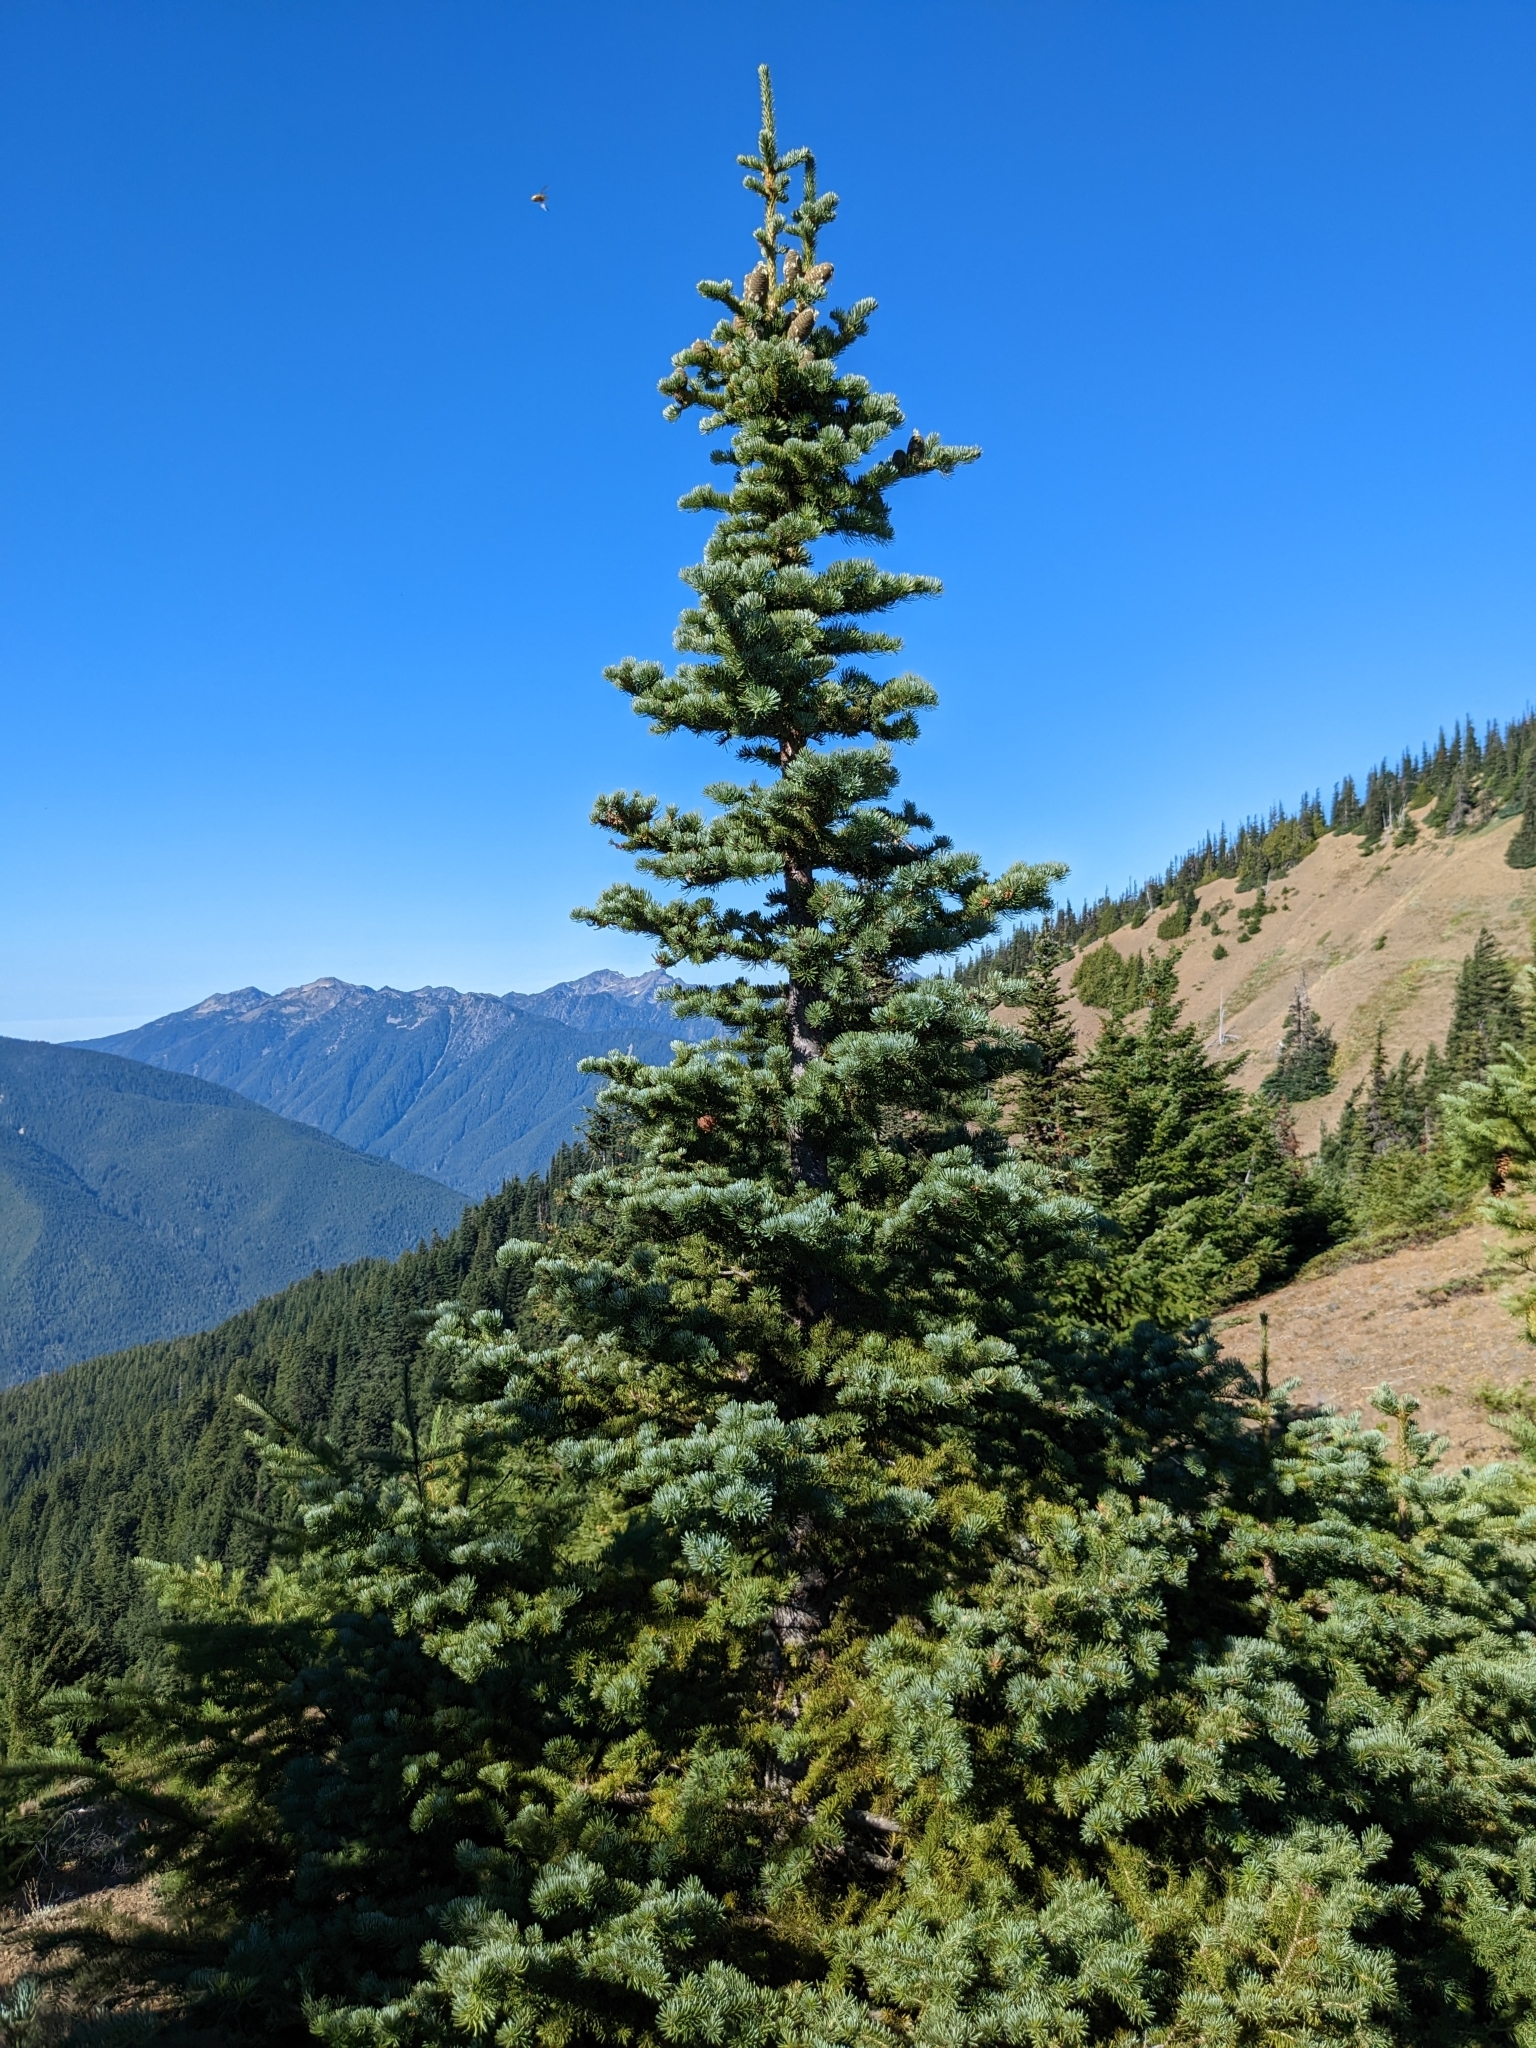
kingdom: Plantae
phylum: Tracheophyta
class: Pinopsida
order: Pinales
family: Pinaceae
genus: Abies
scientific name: Abies lasiocarpa
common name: Subalpine fir
